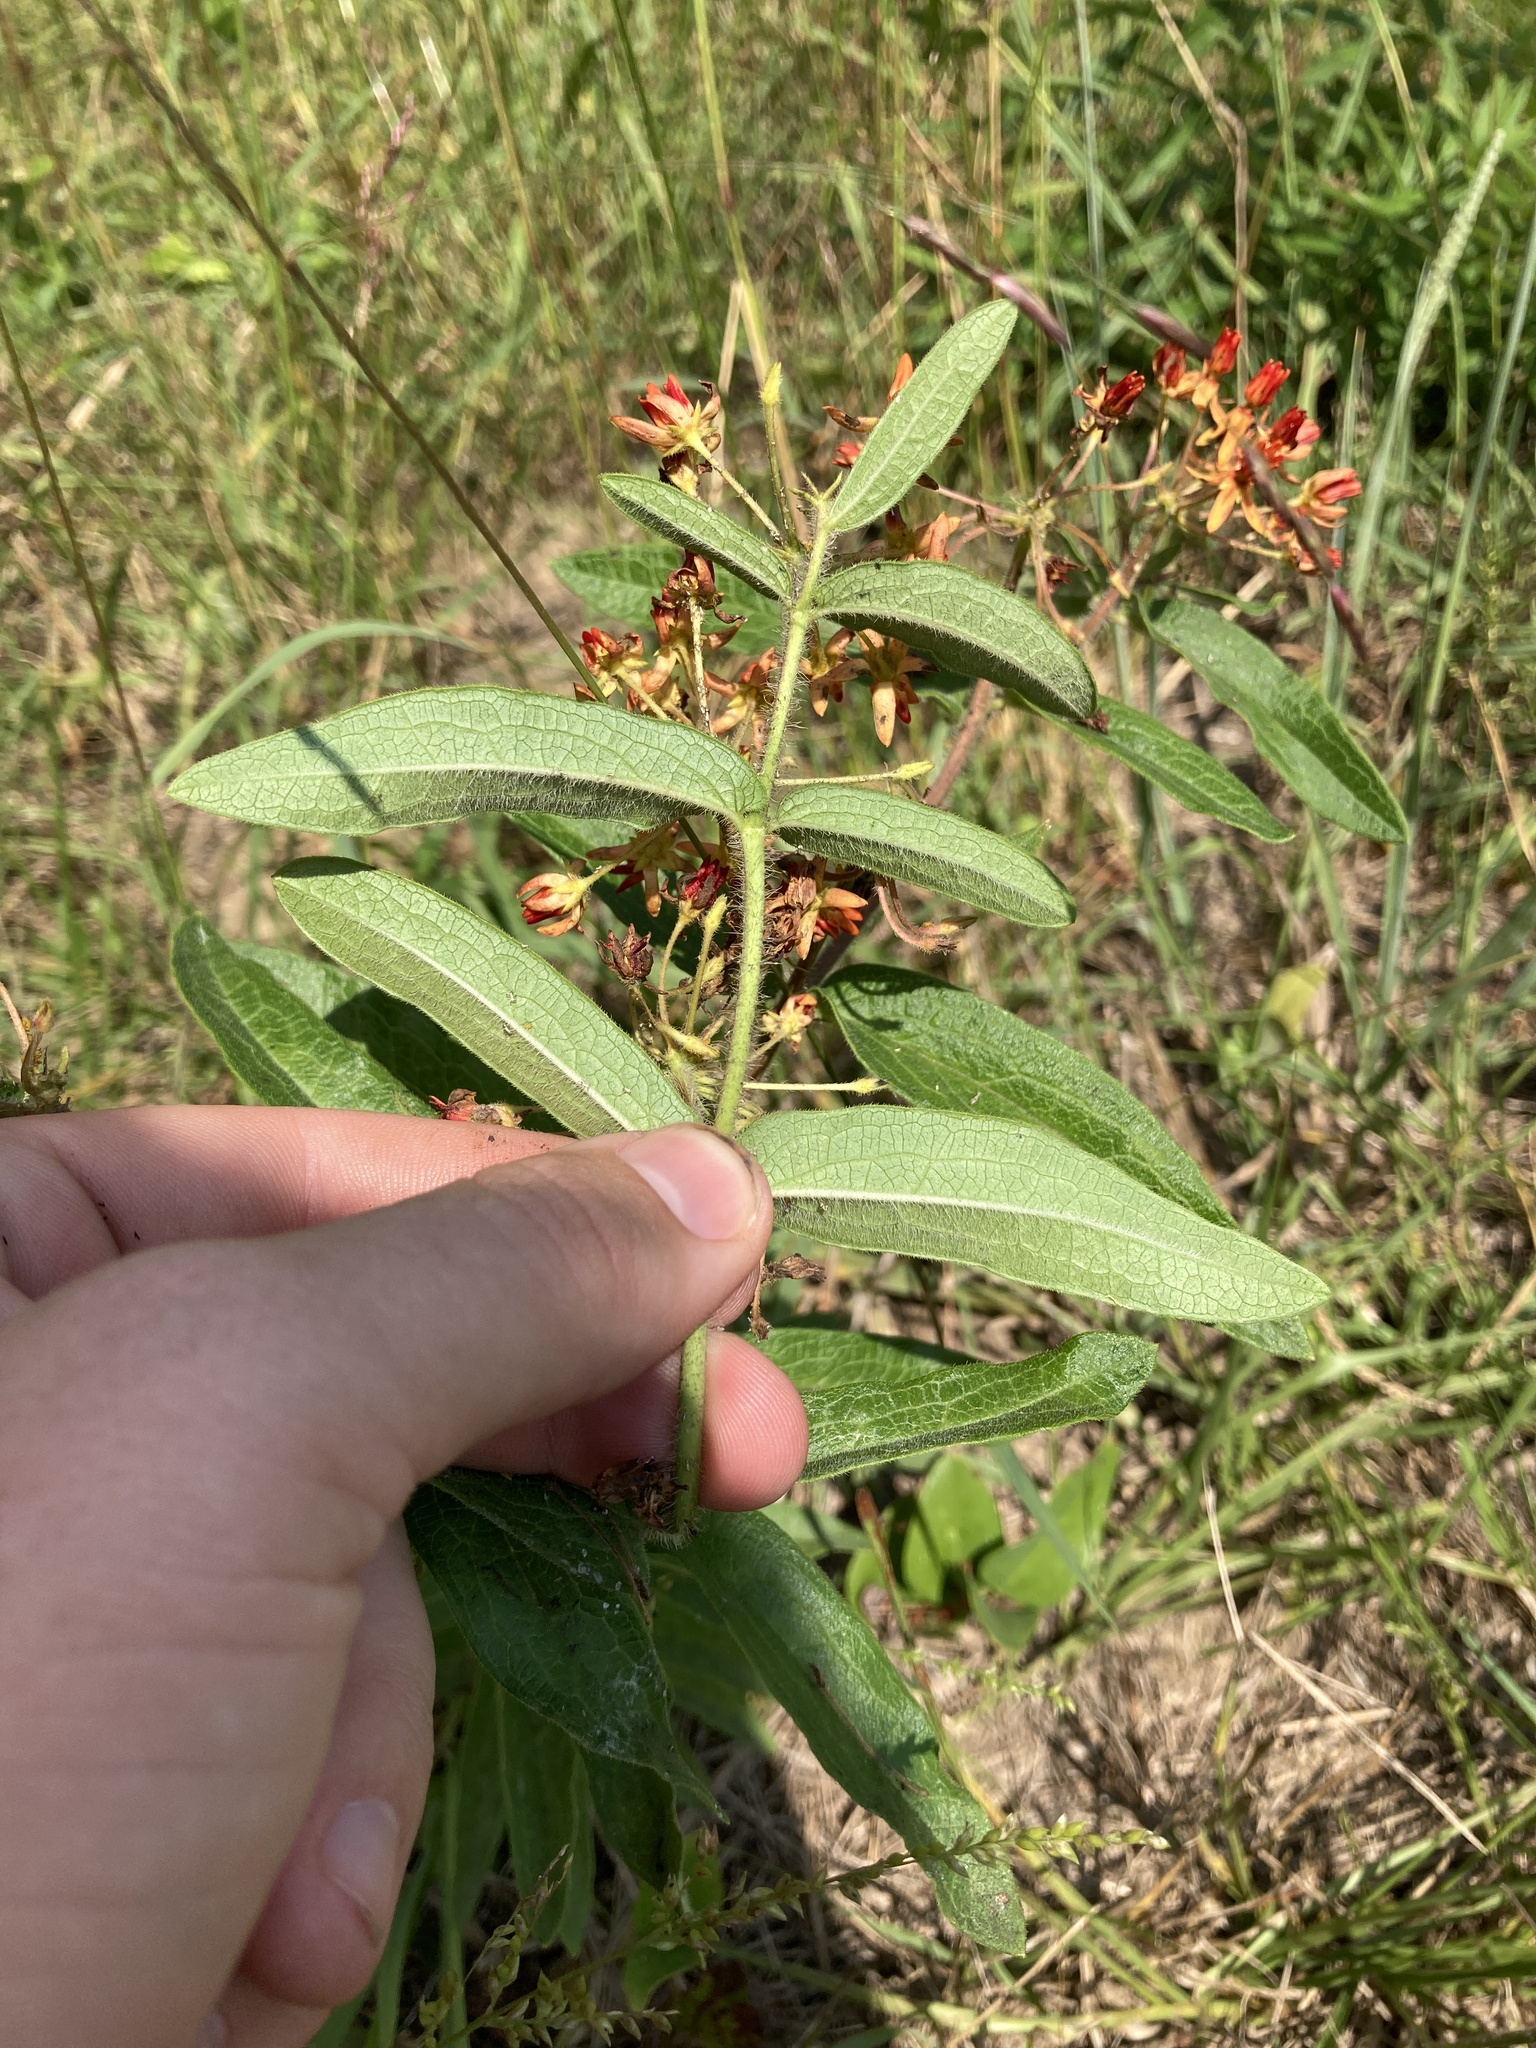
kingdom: Plantae
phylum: Tracheophyta
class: Magnoliopsida
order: Gentianales
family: Apocynaceae
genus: Asclepias
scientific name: Asclepias tuberosa
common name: Butterfly milkweed
